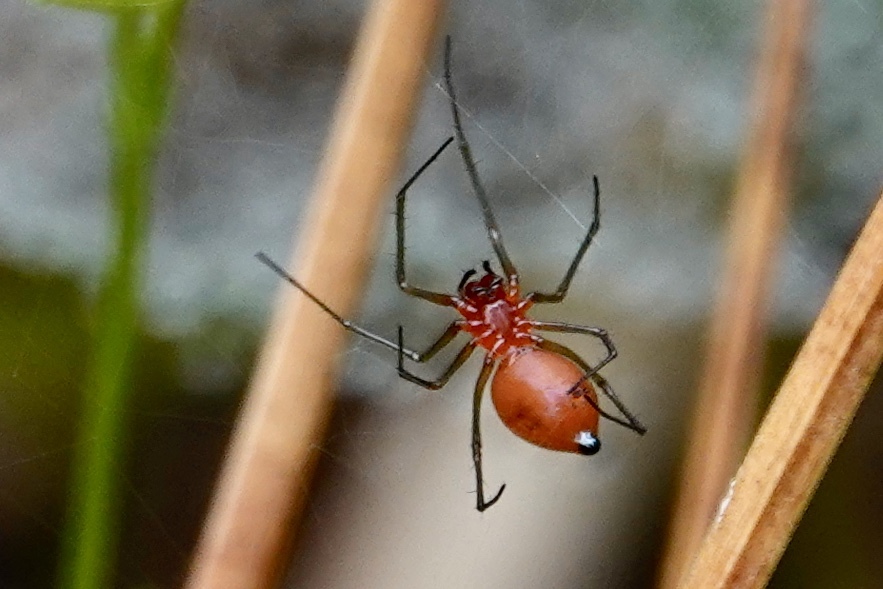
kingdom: Animalia
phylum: Arthropoda
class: Arachnida
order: Araneae
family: Linyphiidae
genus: Florinda
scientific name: Florinda coccinea
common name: Black-tailed red sheetweaver
